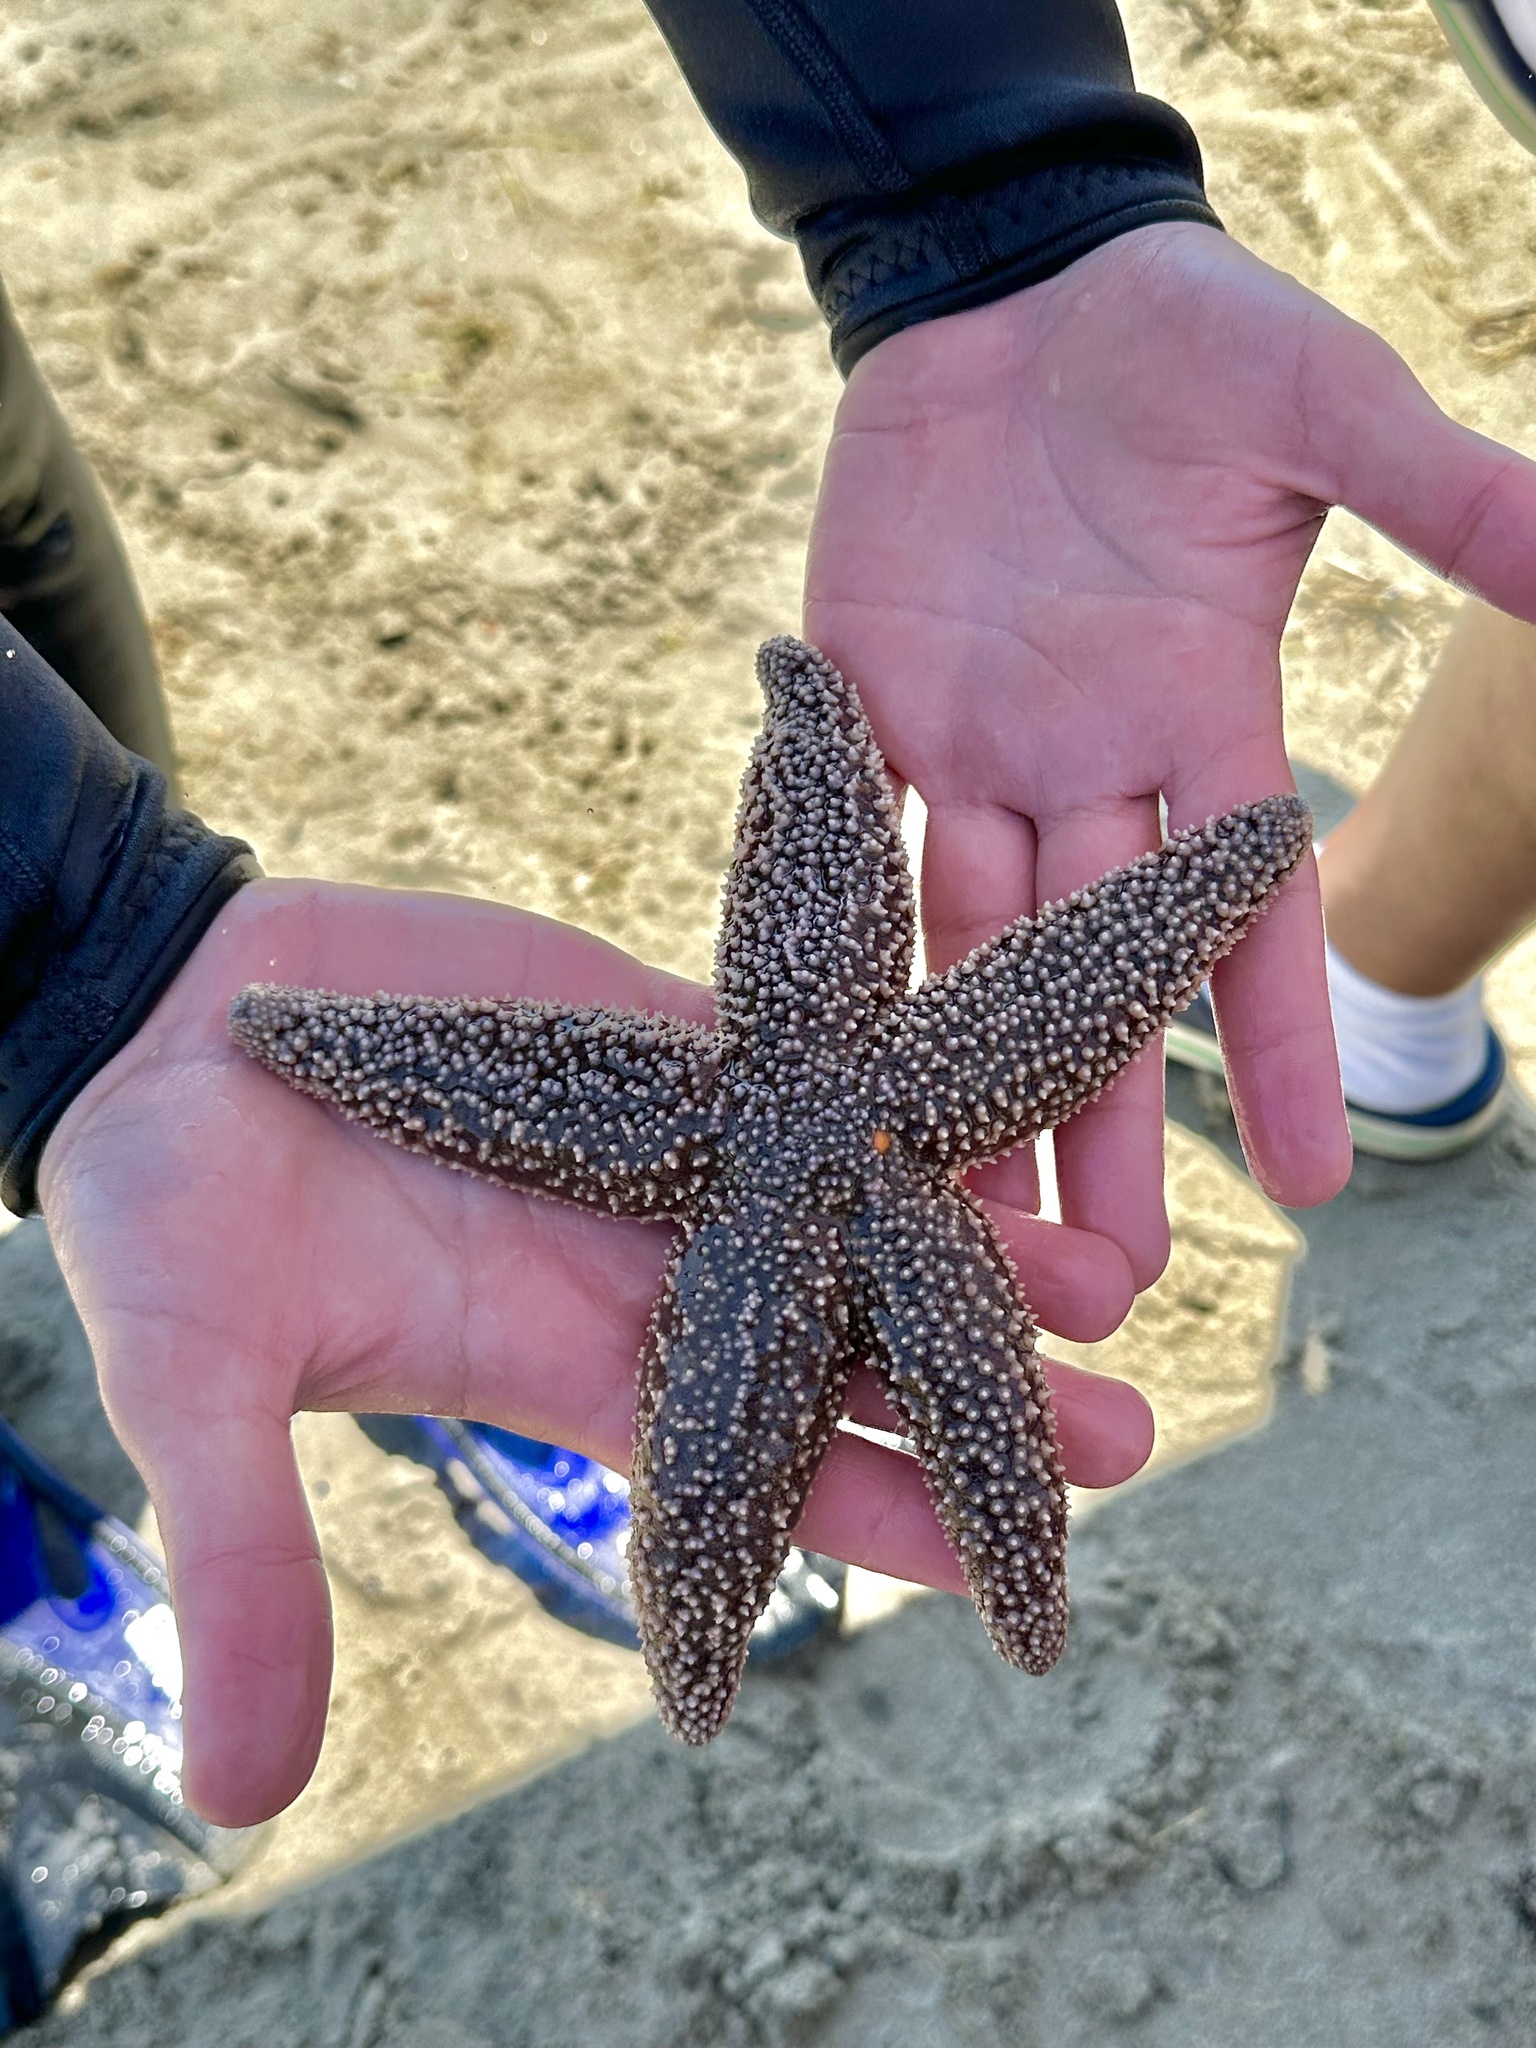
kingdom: Animalia
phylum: Echinodermata
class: Asteroidea
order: Forcipulatida
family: Asteriidae
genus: Asterias
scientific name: Asterias forbesi
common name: Forbes's sea star
